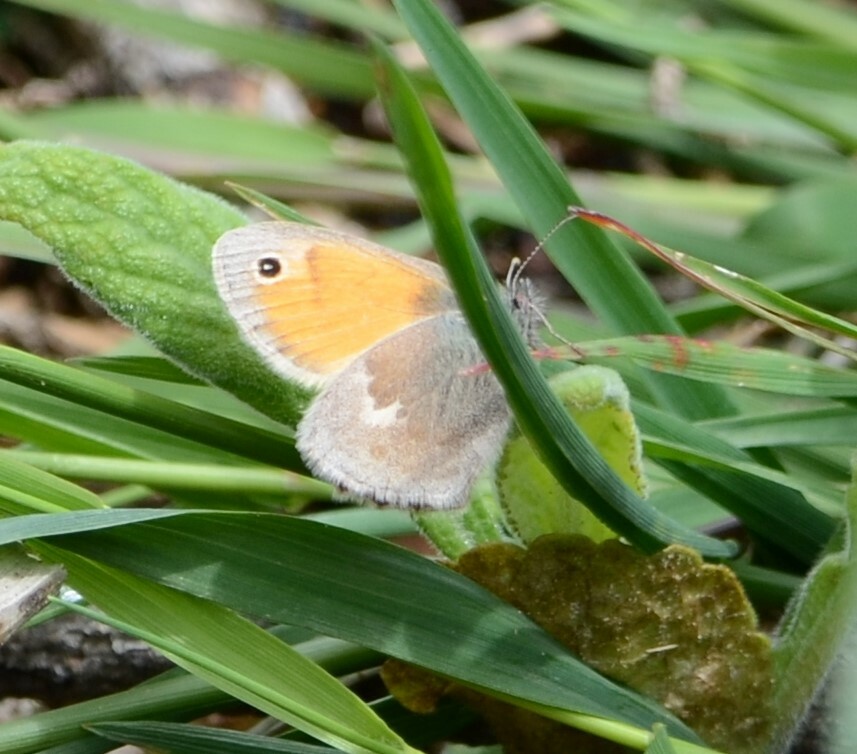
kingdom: Animalia
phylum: Arthropoda
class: Insecta
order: Lepidoptera
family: Nymphalidae
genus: Coenonympha
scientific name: Coenonympha pamphilus
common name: Small heath
